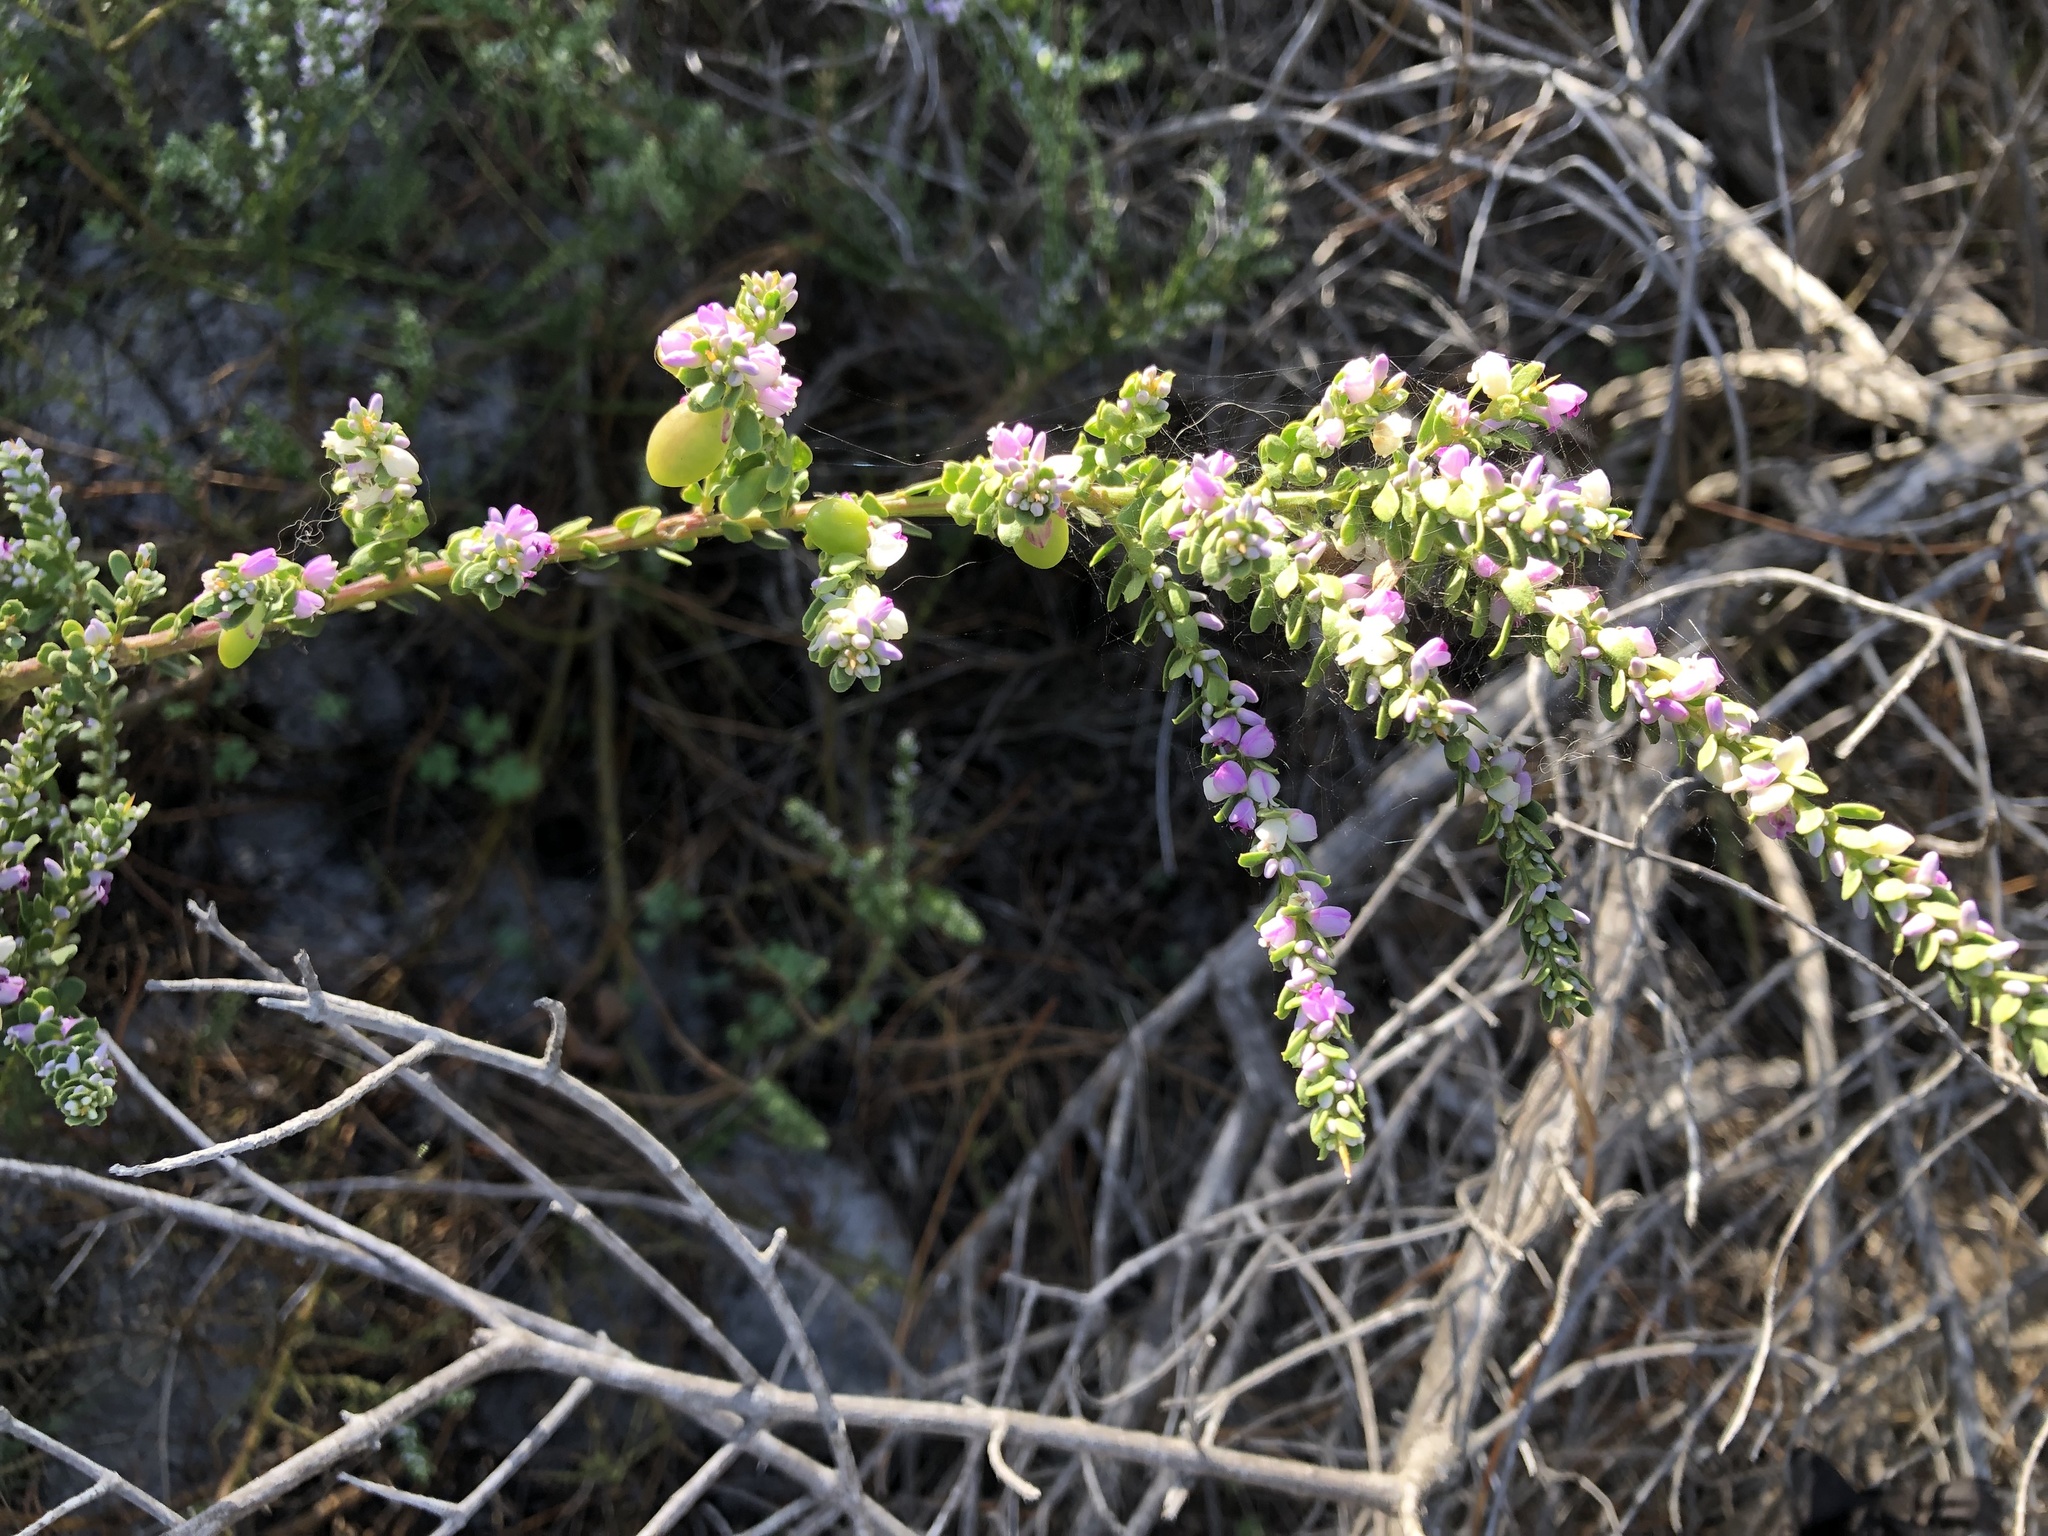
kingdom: Plantae
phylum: Tracheophyta
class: Magnoliopsida
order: Fabales
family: Polygalaceae
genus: Muraltia
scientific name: Muraltia spinosa
